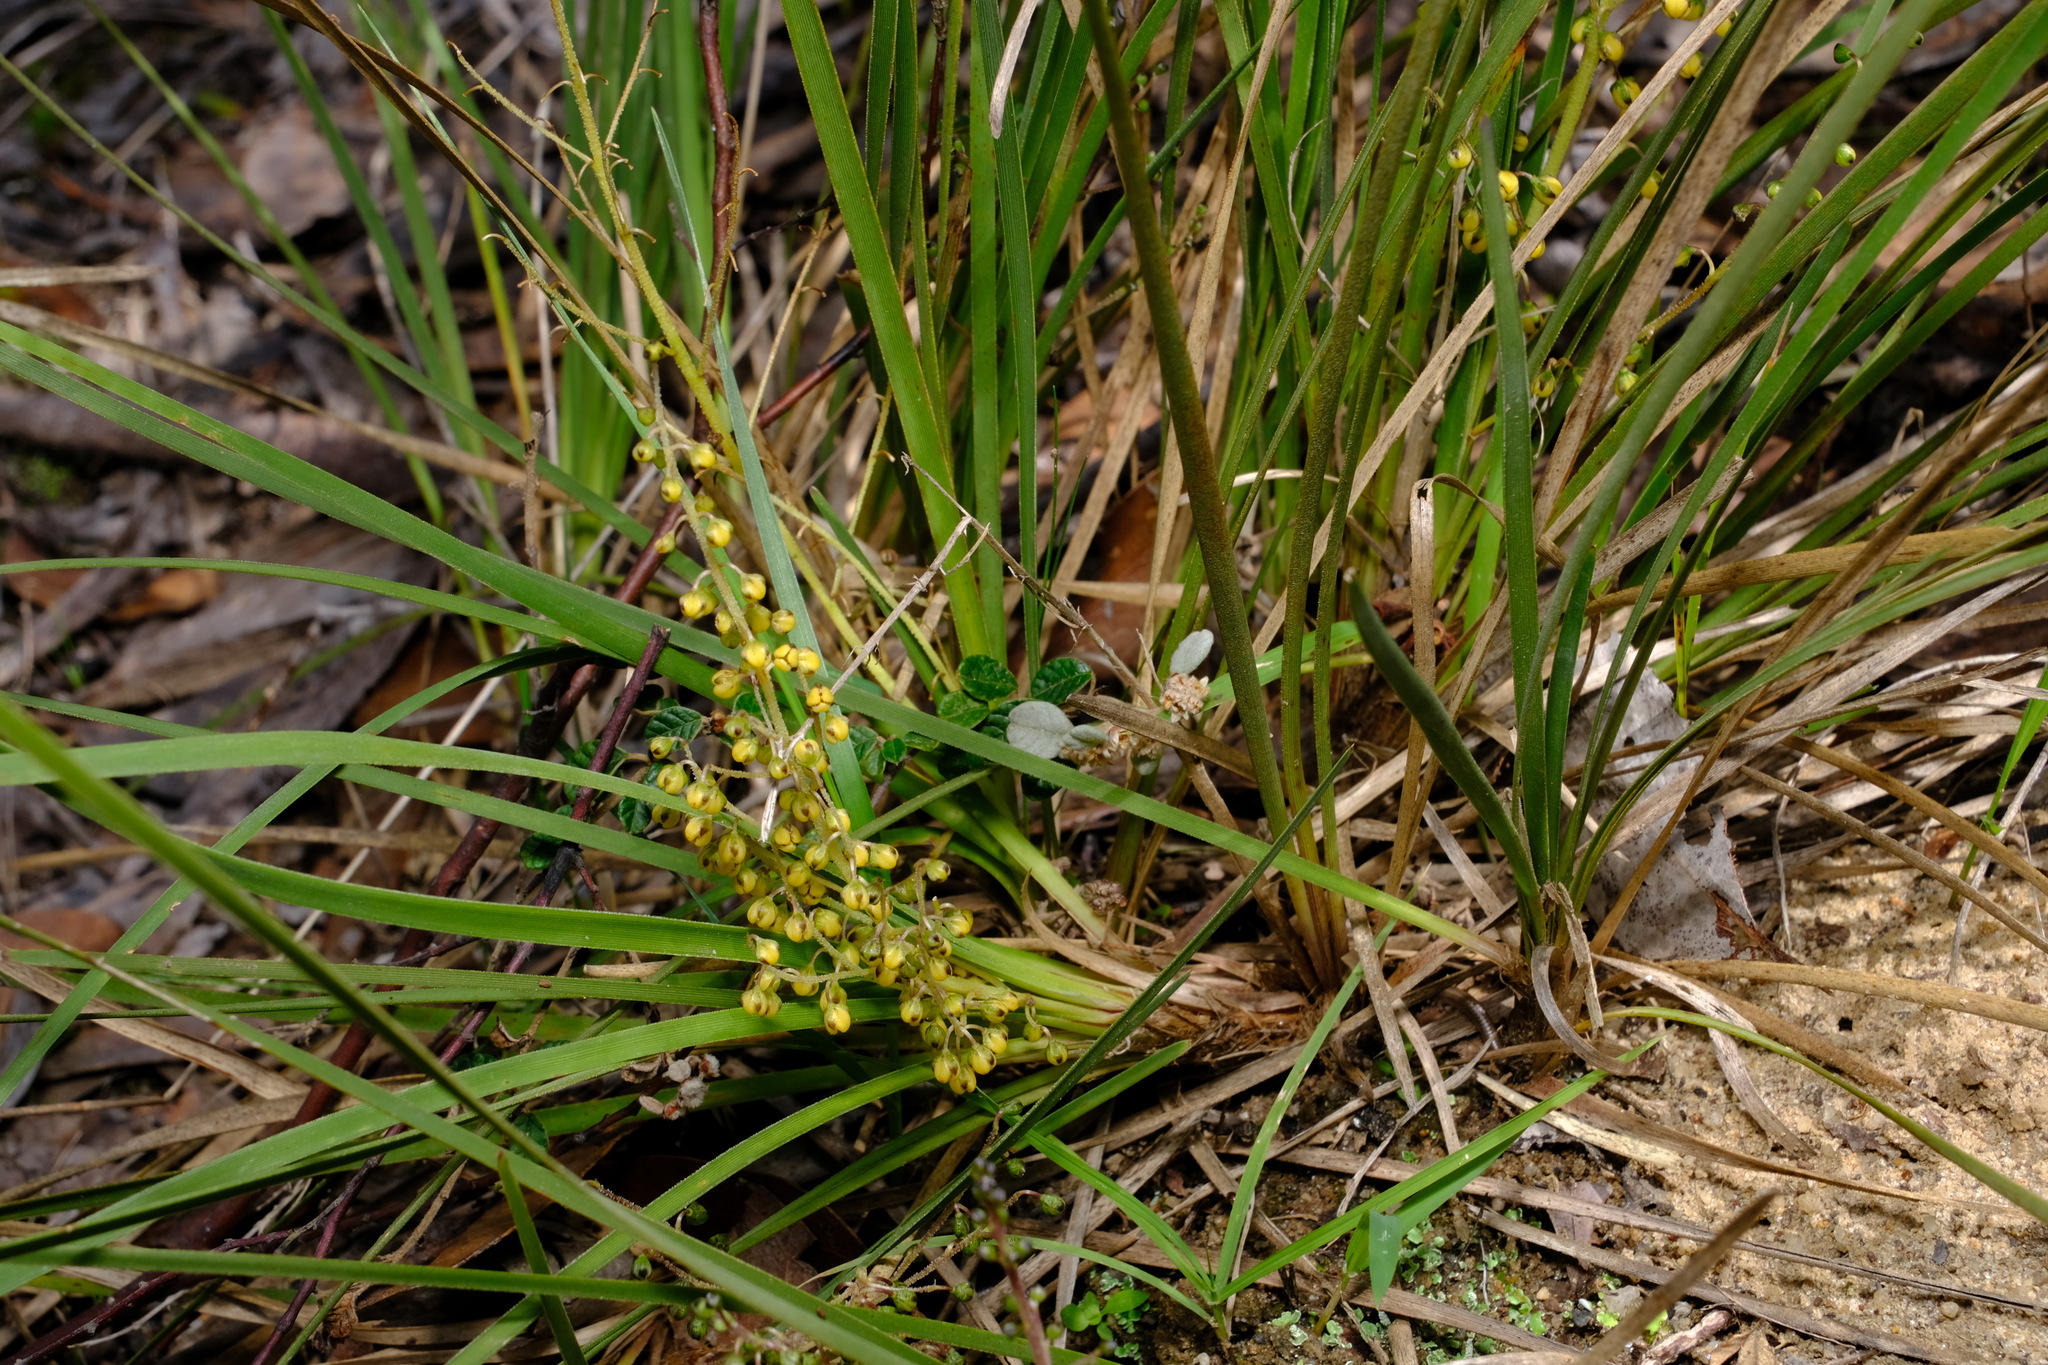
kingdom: Plantae
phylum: Tracheophyta
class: Liliopsida
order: Asparagales
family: Asparagaceae
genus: Lomandra
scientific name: Lomandra filiformis
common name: Wattle mat-rush
